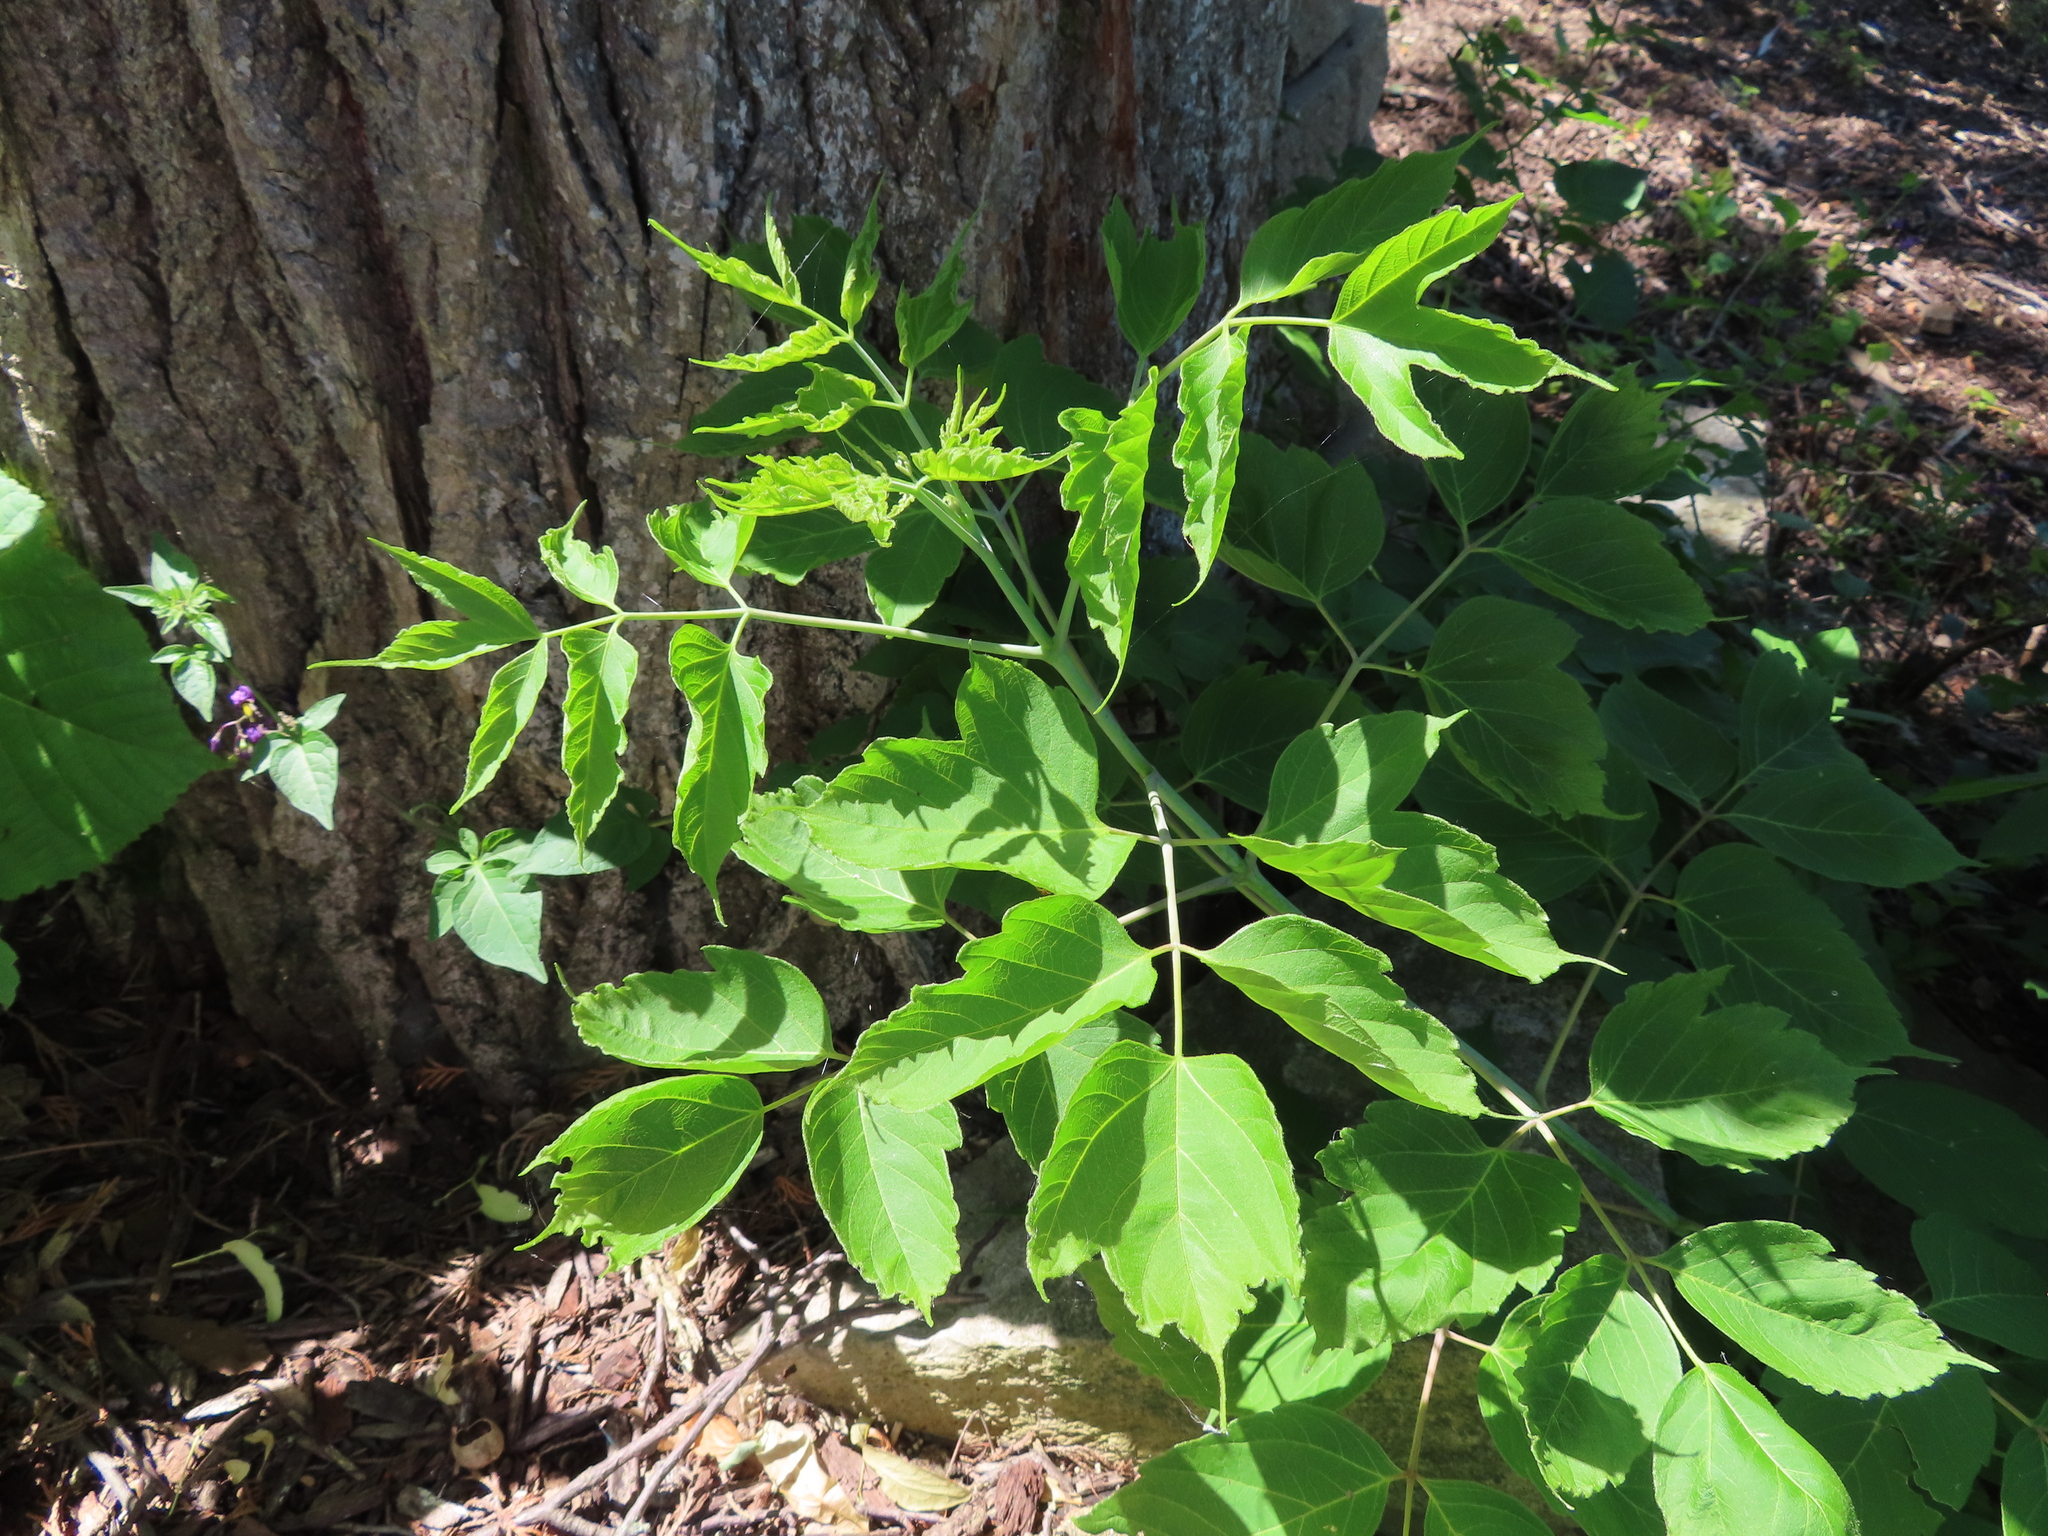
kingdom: Plantae
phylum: Tracheophyta
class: Magnoliopsida
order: Sapindales
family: Sapindaceae
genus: Acer
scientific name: Acer negundo
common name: Ashleaf maple
